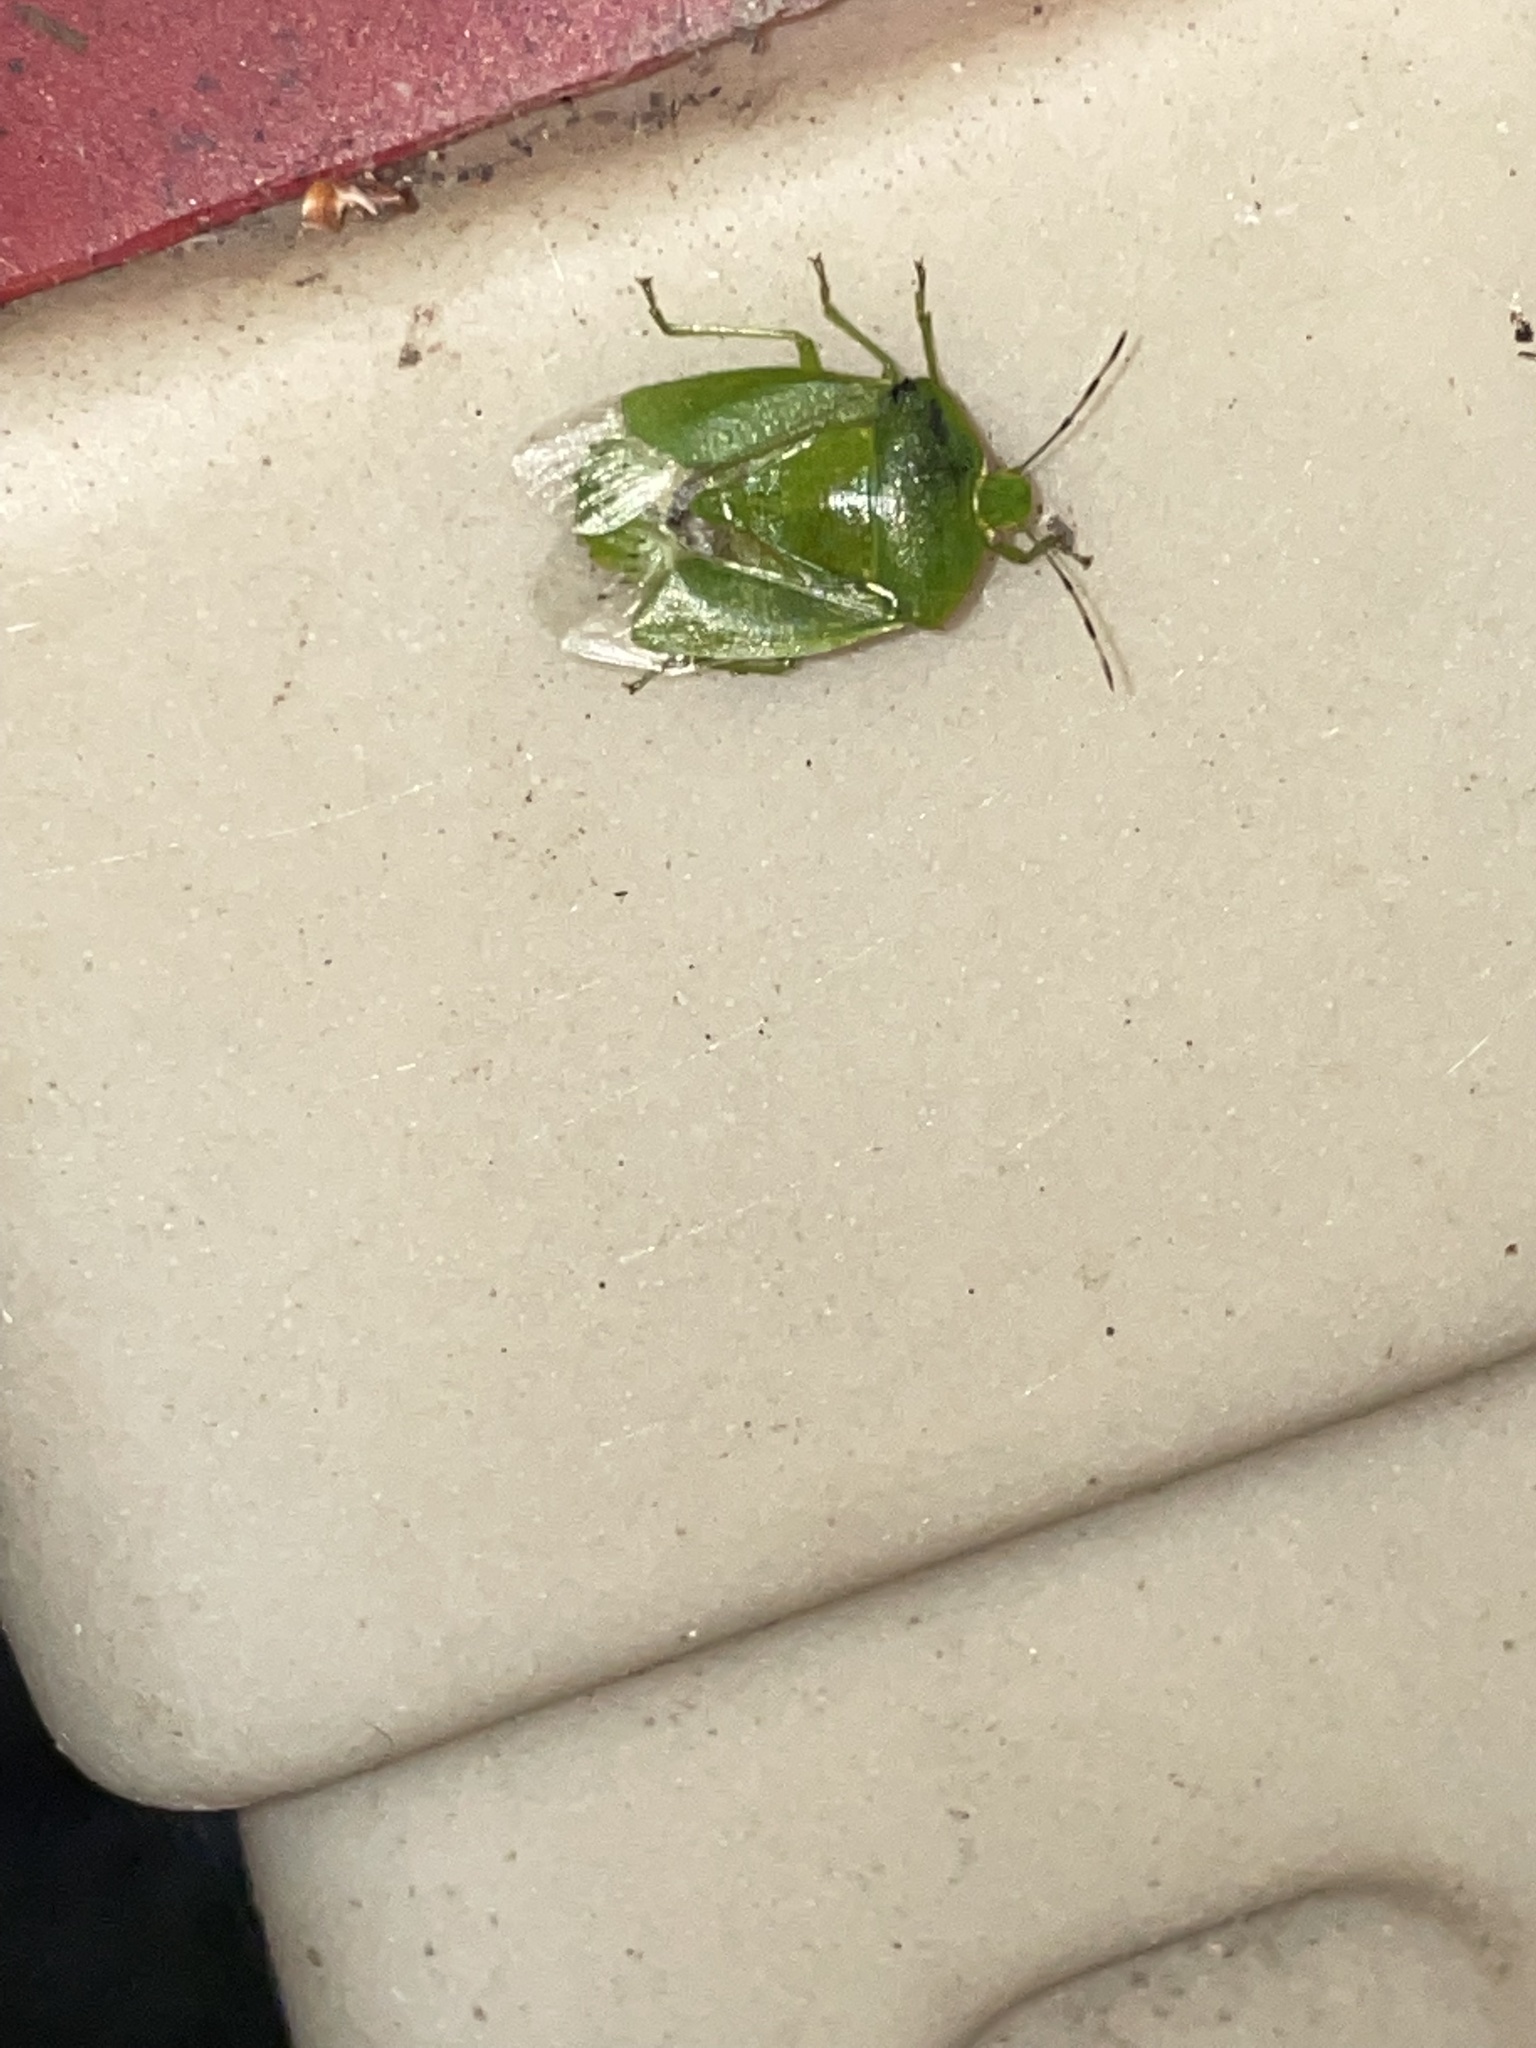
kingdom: Animalia
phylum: Arthropoda
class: Insecta
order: Hemiptera
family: Pentatomidae
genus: Chinavia
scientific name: Chinavia hilaris
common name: Green stink bug
